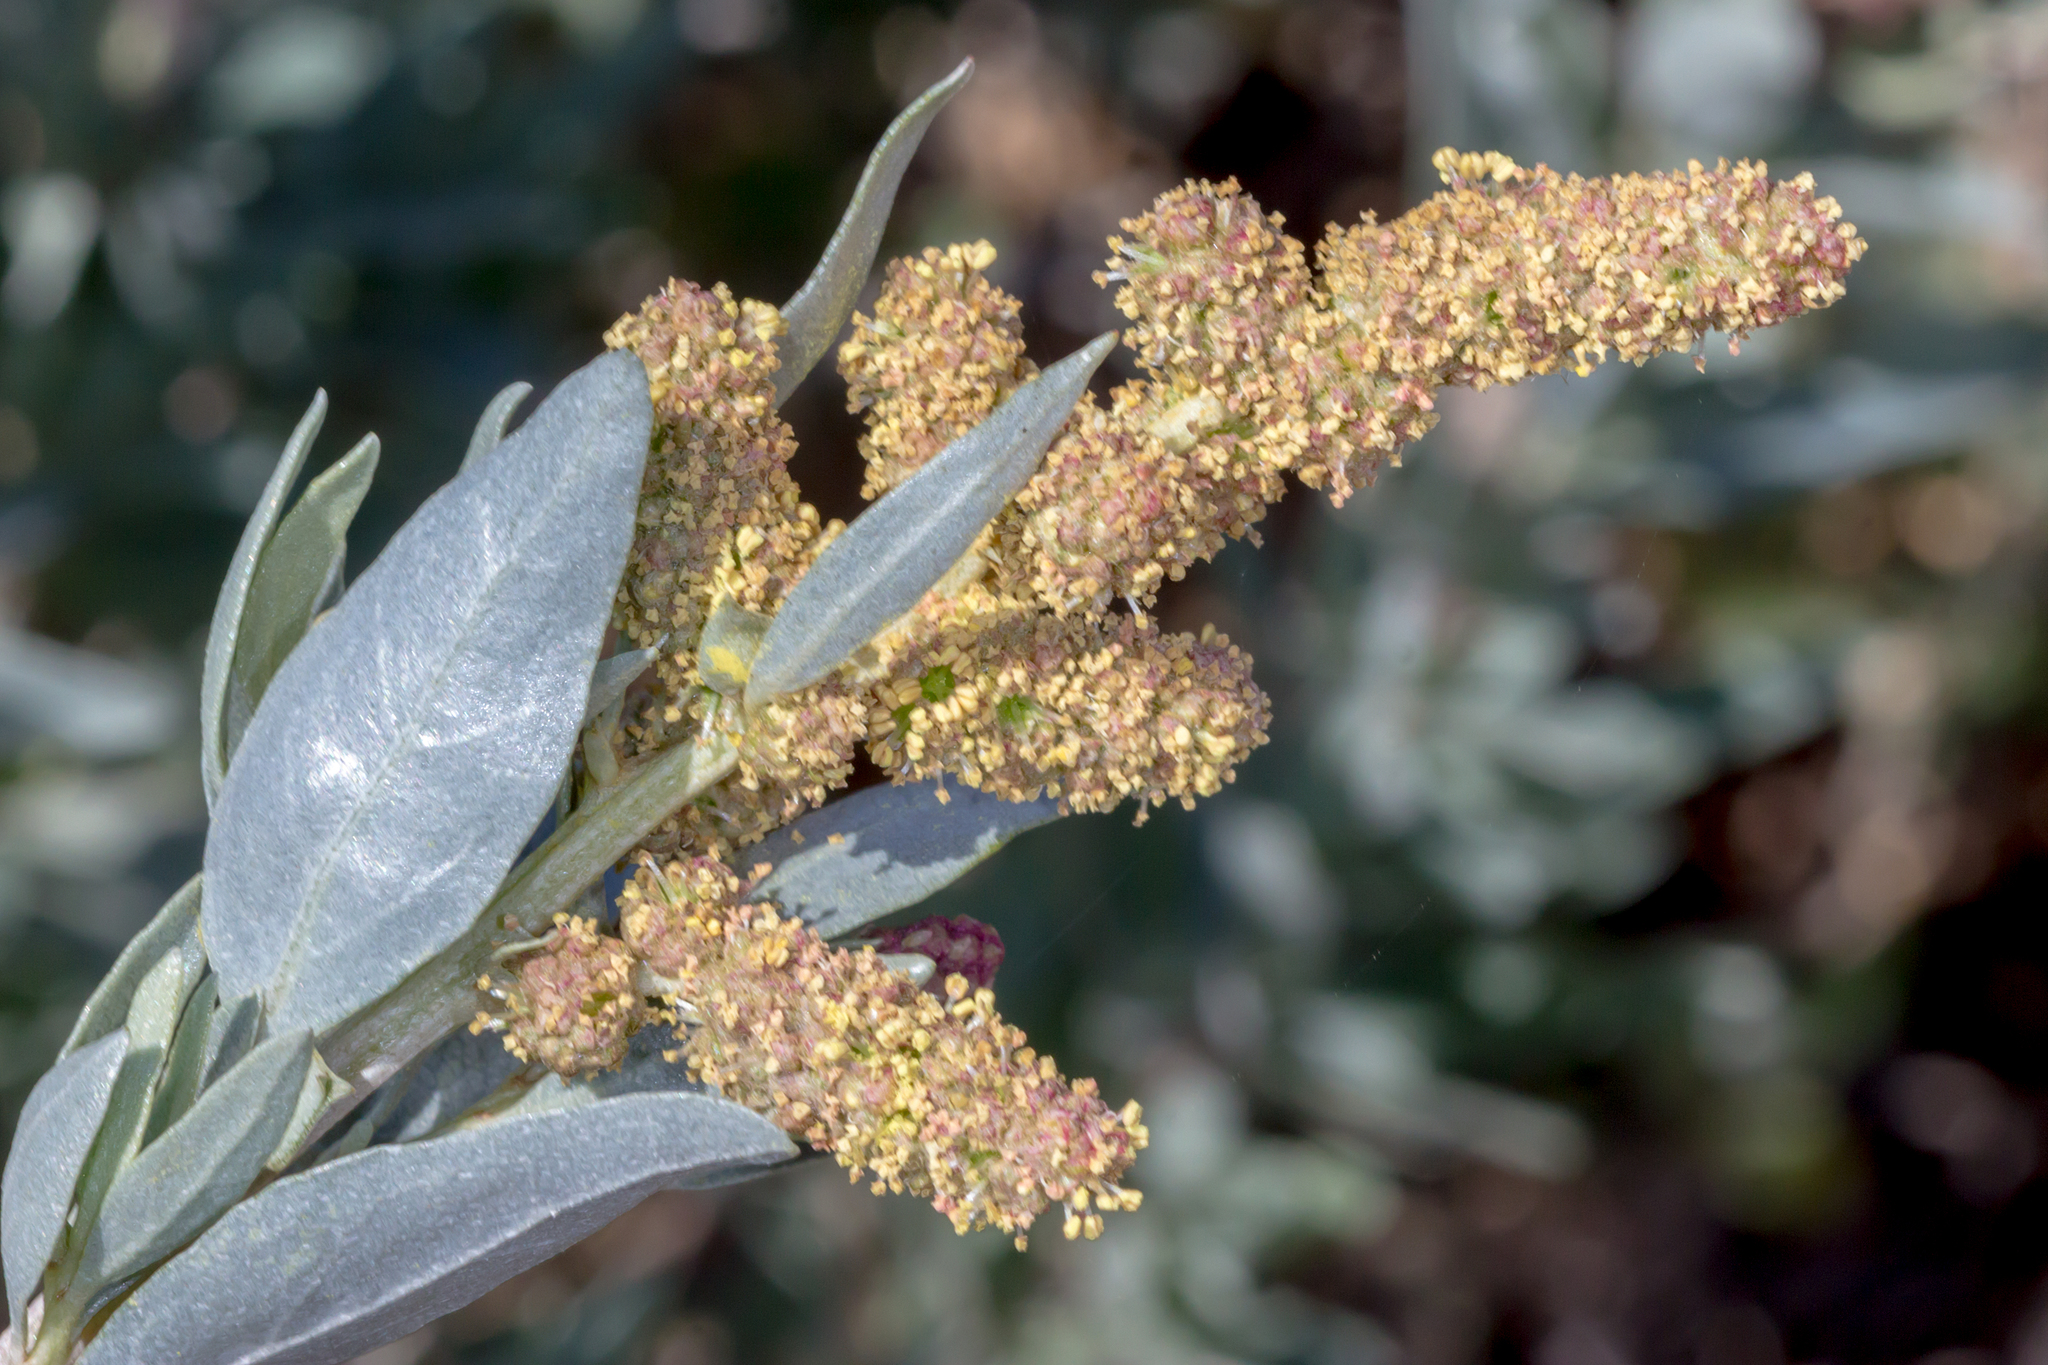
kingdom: Plantae
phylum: Tracheophyta
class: Magnoliopsida
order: Caryophyllales
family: Amaranthaceae
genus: Atriplex
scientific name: Atriplex cinerea
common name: Grey saltbush
